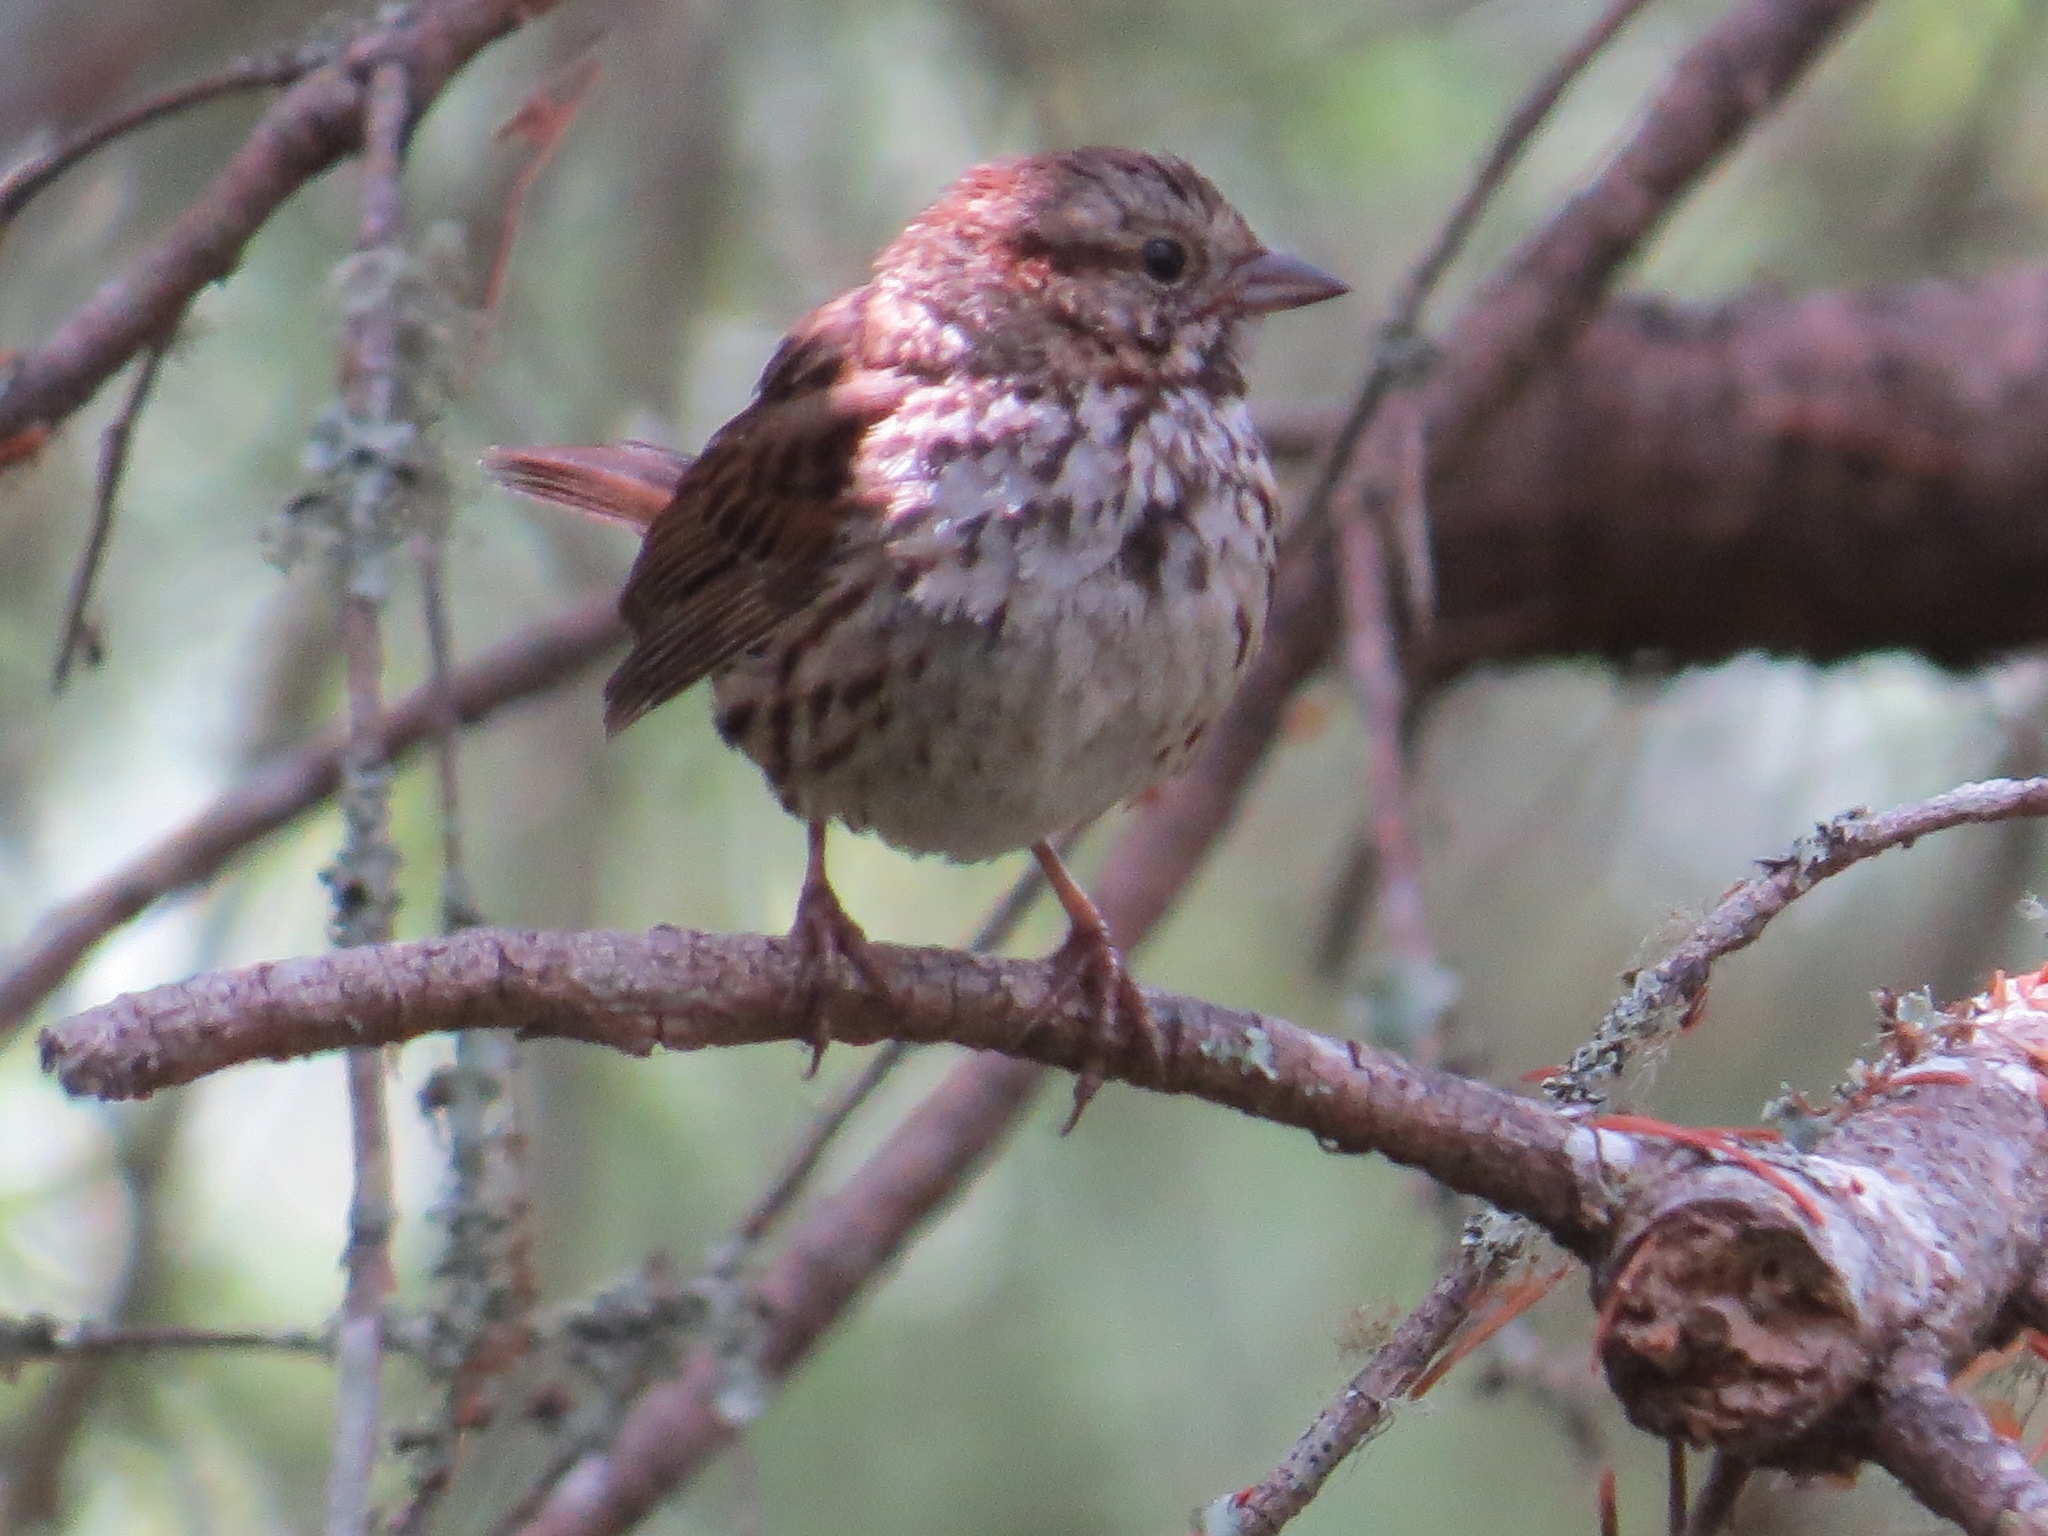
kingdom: Animalia
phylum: Chordata
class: Aves
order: Passeriformes
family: Passerellidae
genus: Melospiza
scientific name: Melospiza melodia
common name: Song sparrow
